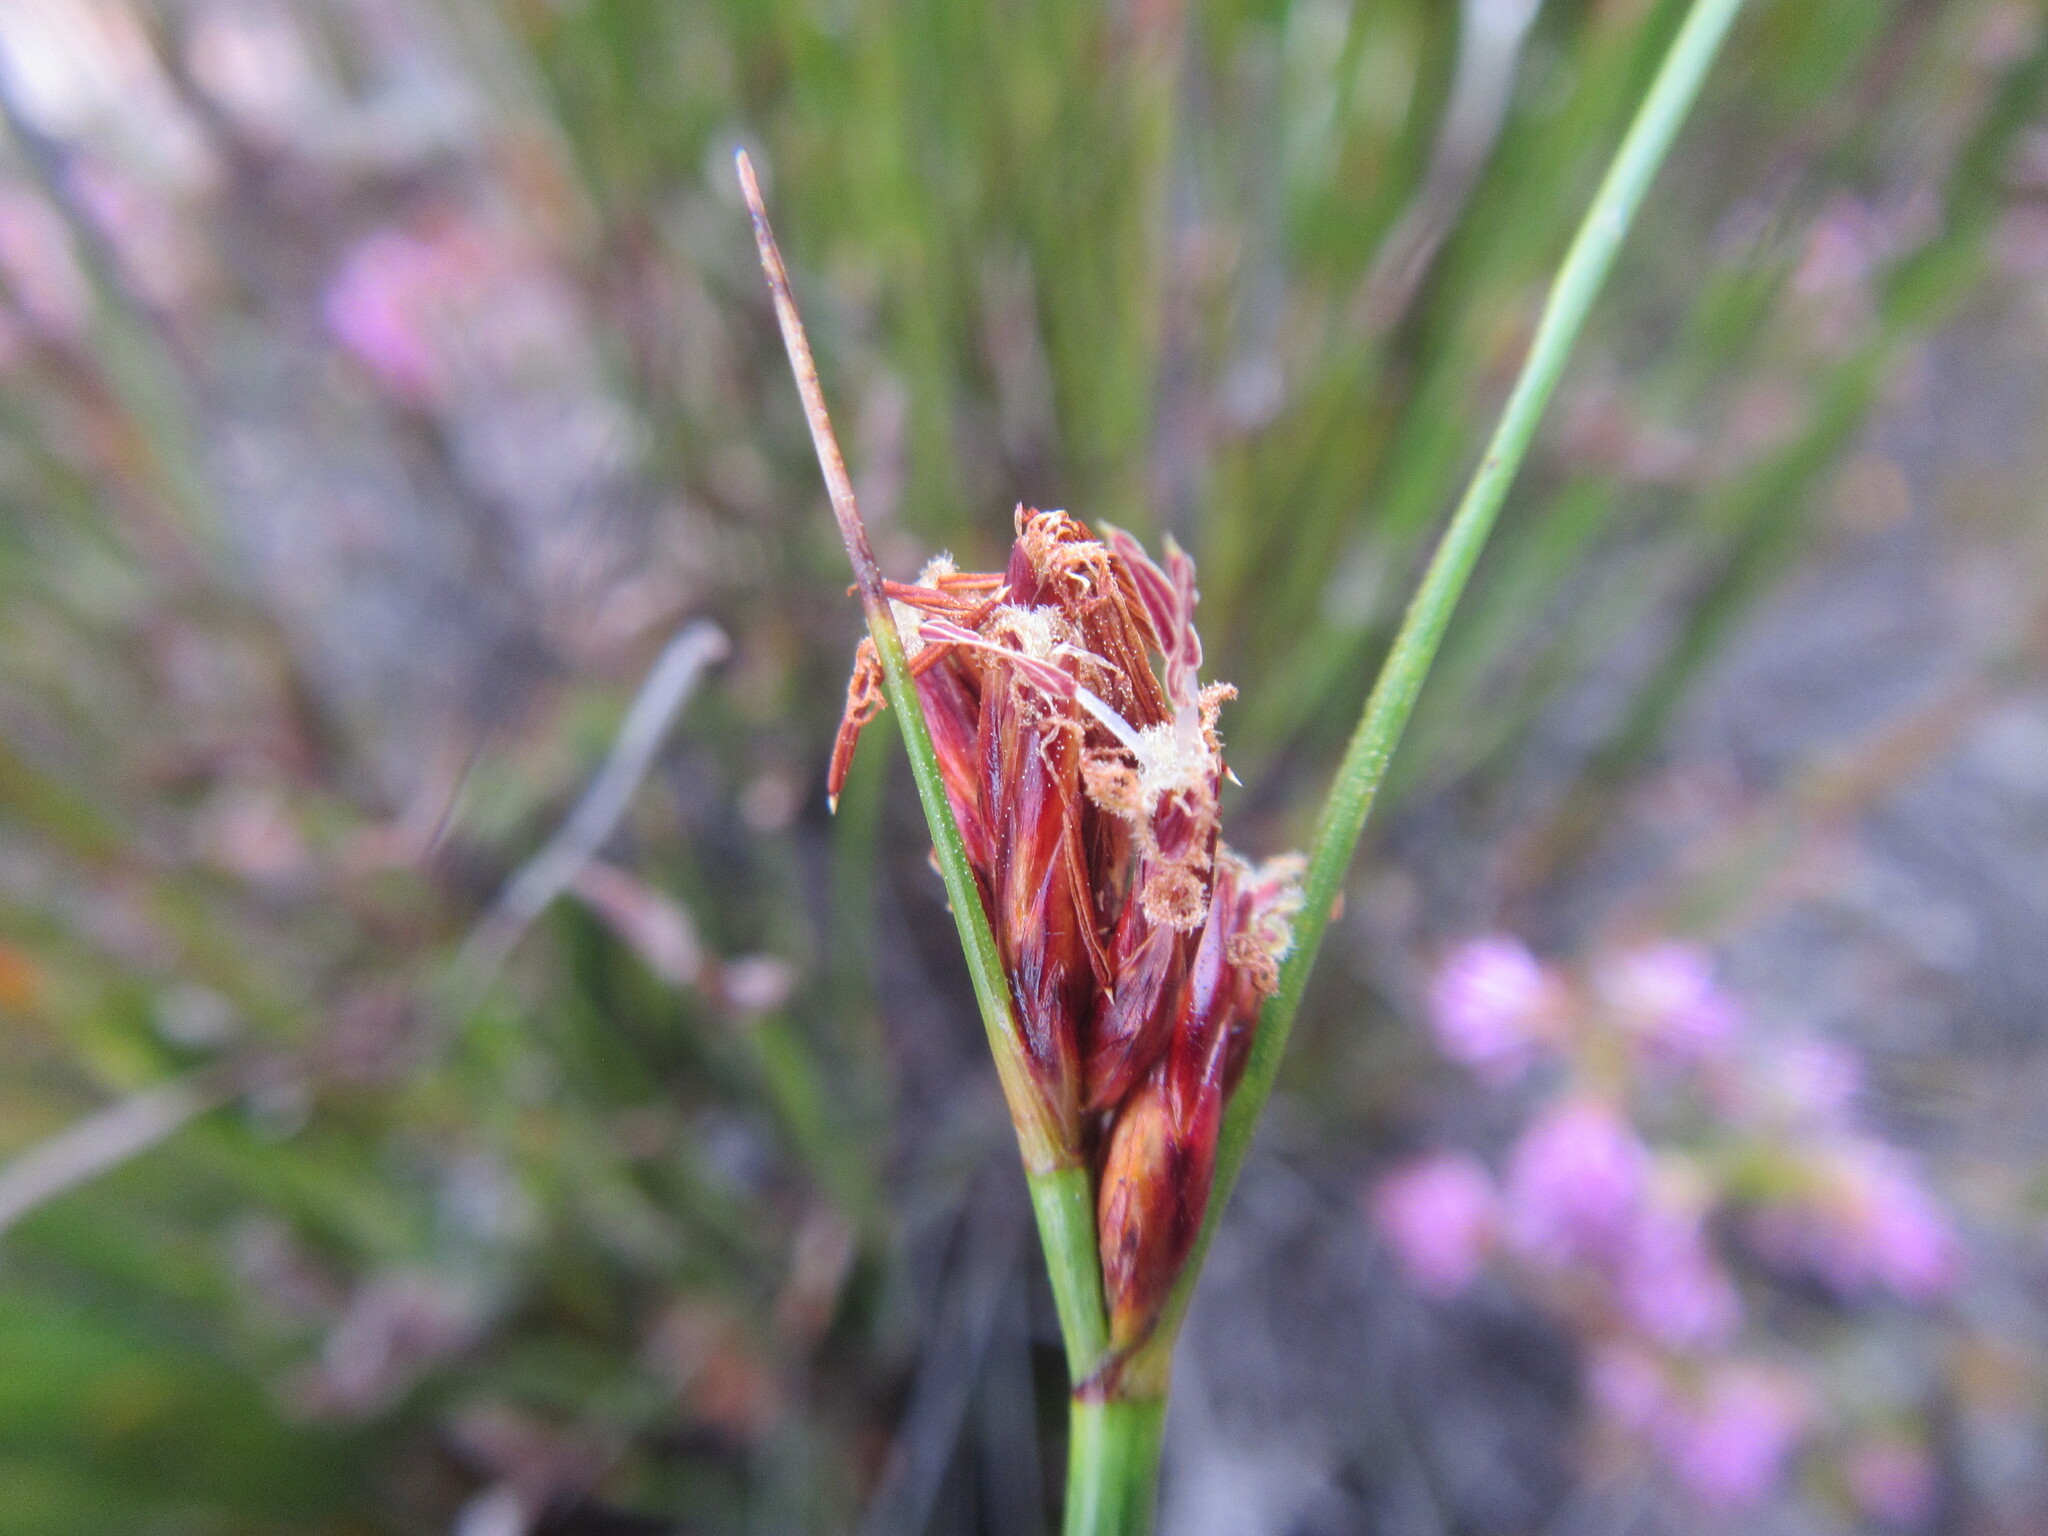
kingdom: Plantae
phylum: Tracheophyta
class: Liliopsida
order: Poales
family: Cyperaceae
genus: Schoenus
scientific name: Schoenus compar
